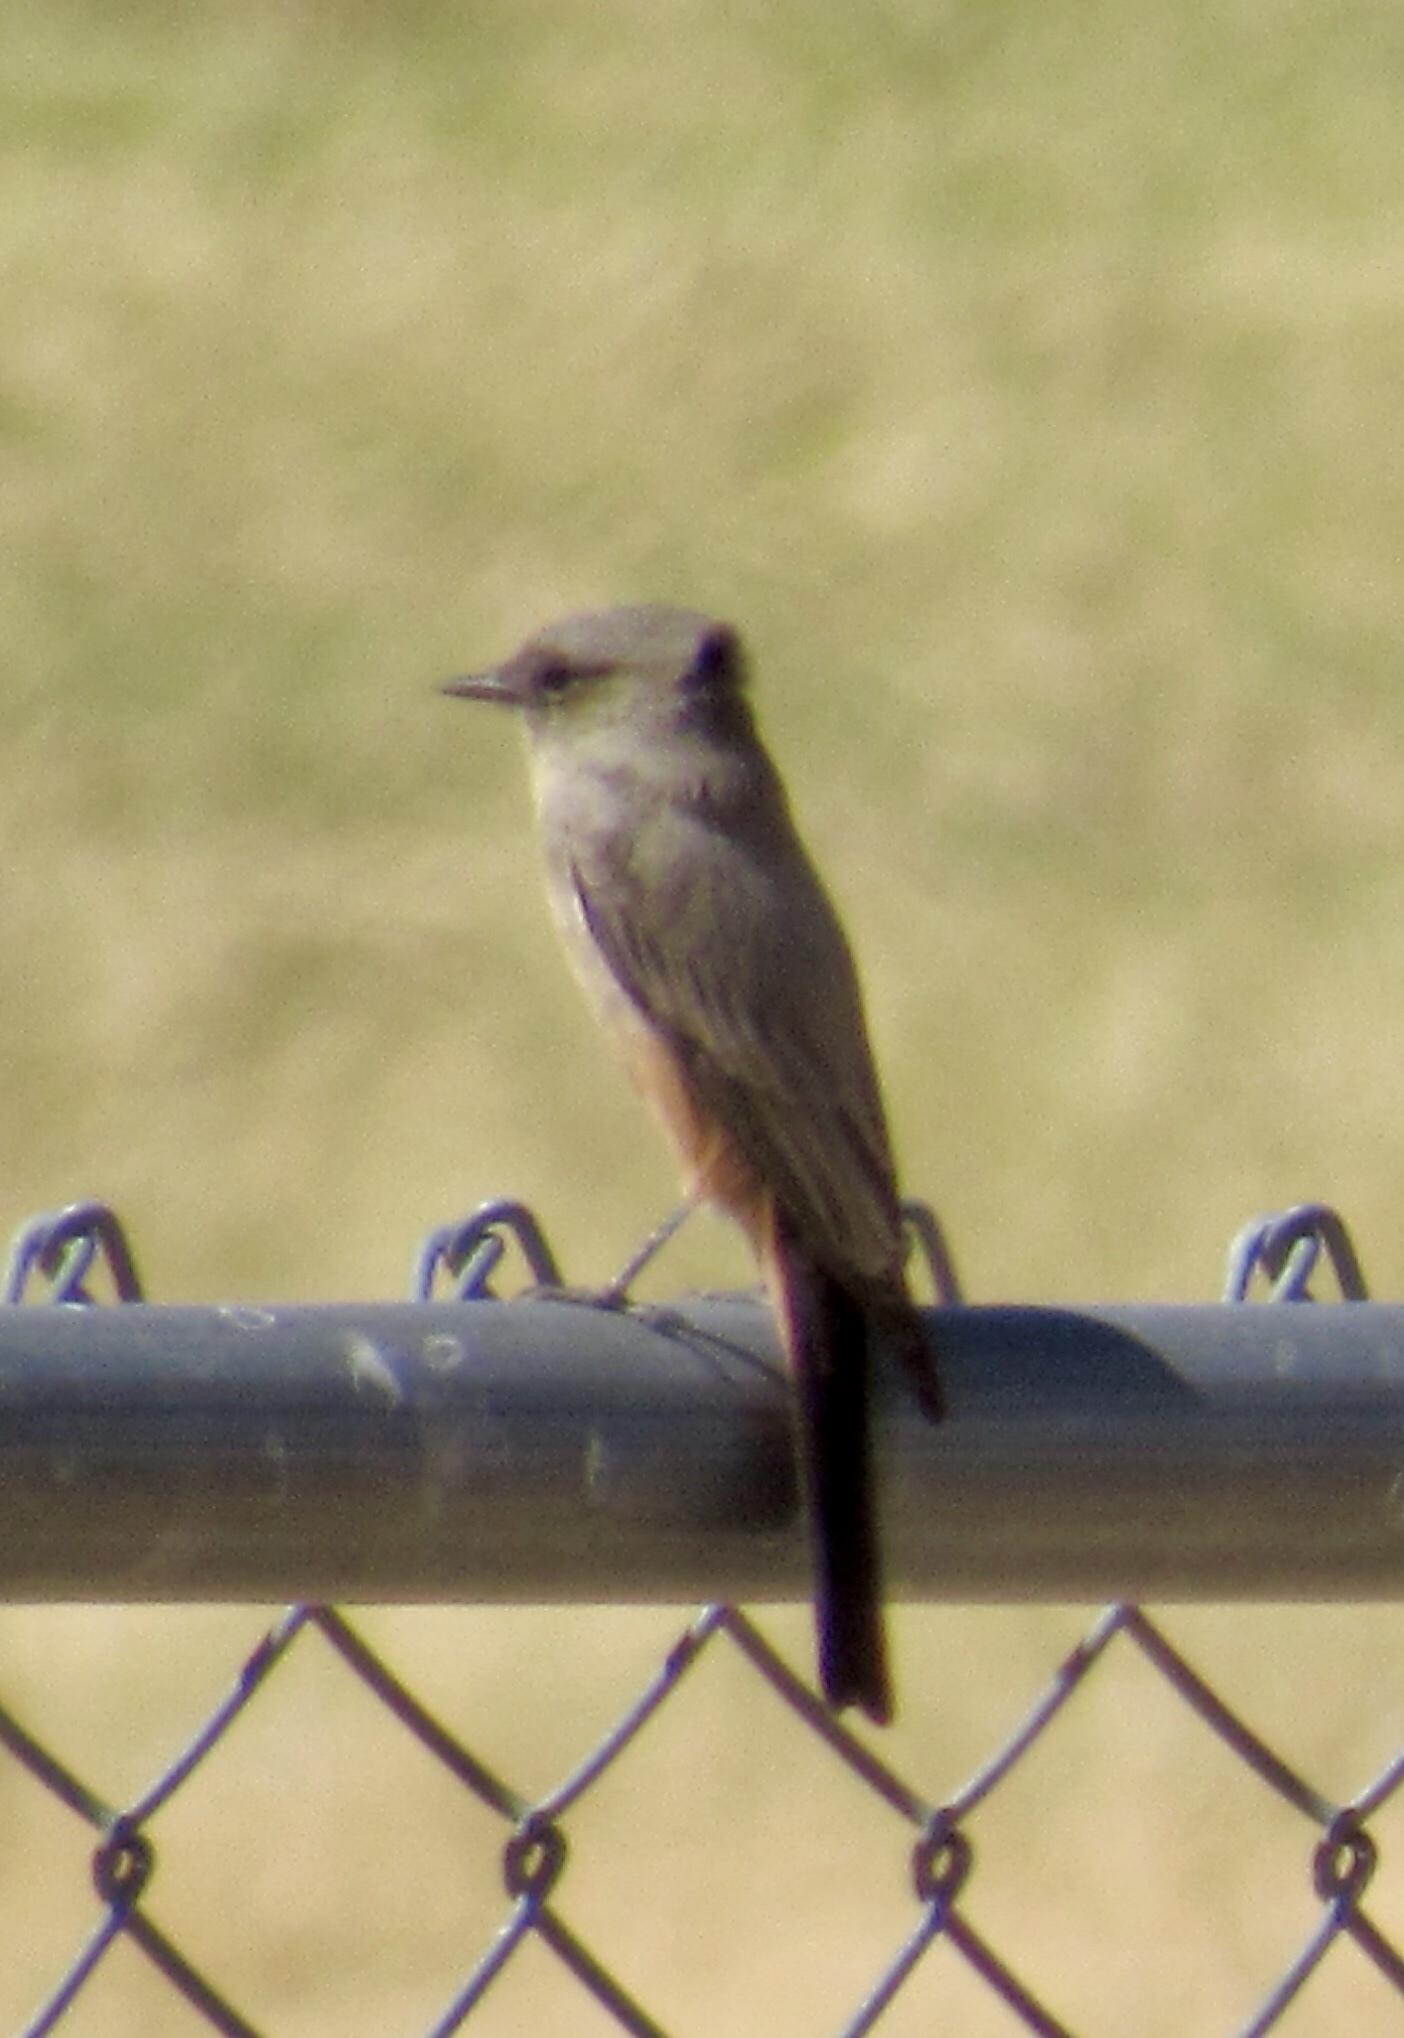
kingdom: Animalia
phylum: Chordata
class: Aves
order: Passeriformes
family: Tyrannidae
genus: Sayornis
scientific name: Sayornis saya
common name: Say's phoebe
